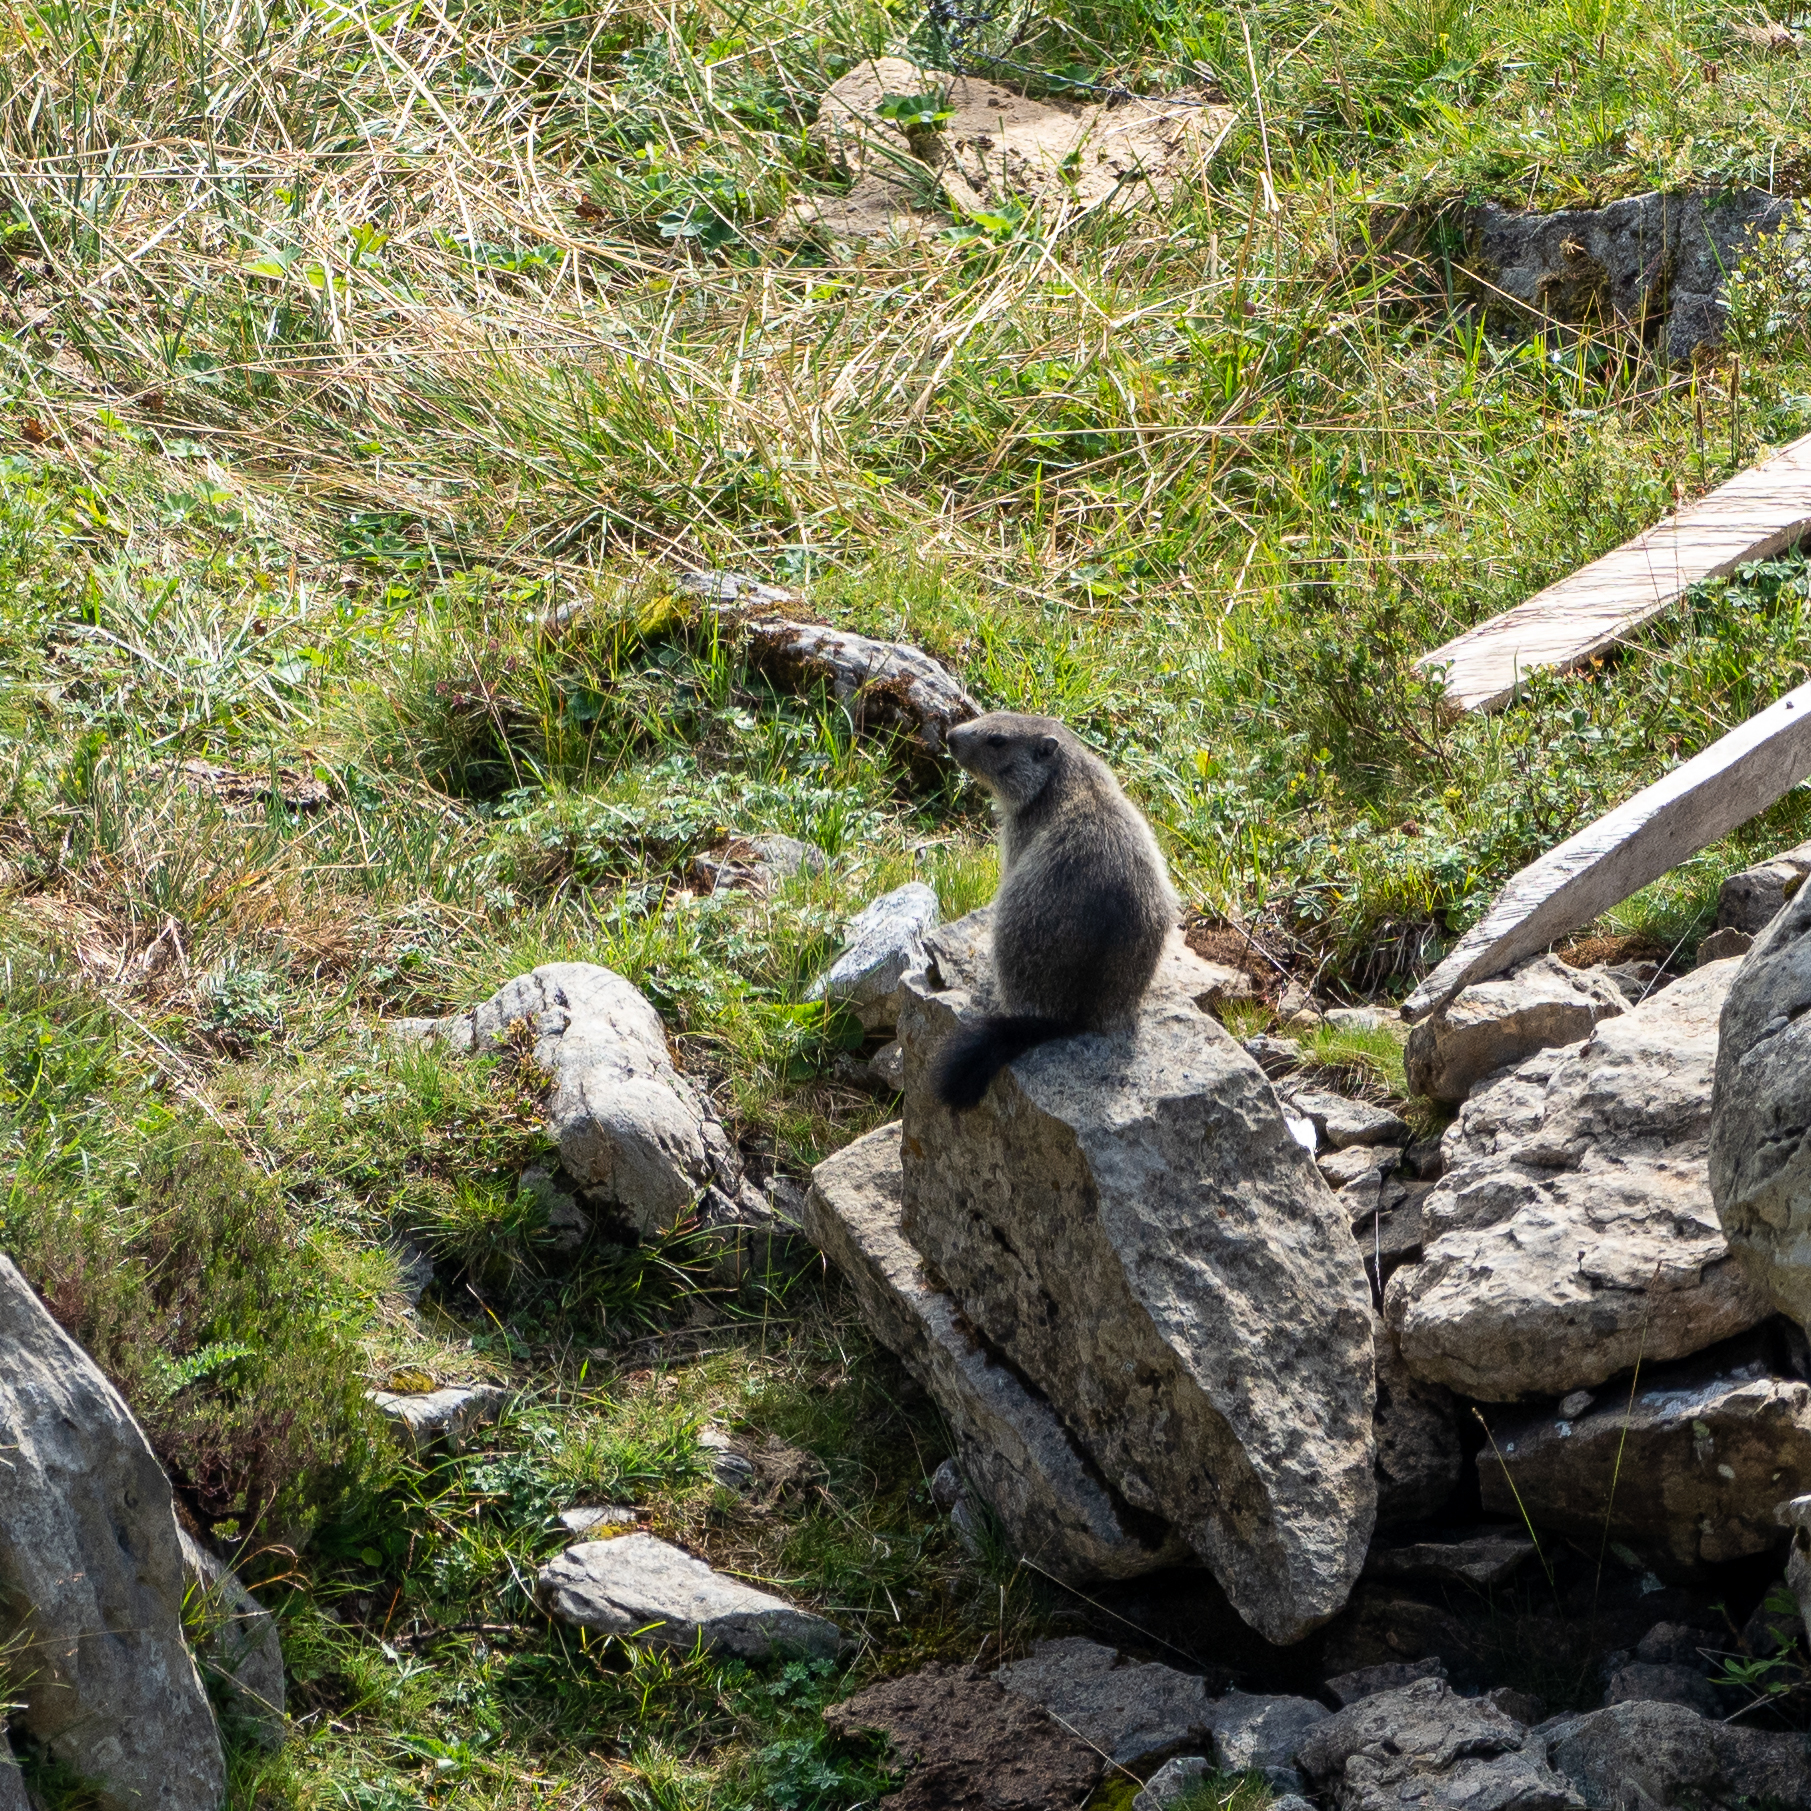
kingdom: Animalia
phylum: Chordata
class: Mammalia
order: Rodentia
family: Sciuridae
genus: Marmota
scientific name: Marmota marmota
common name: Alpine marmot
